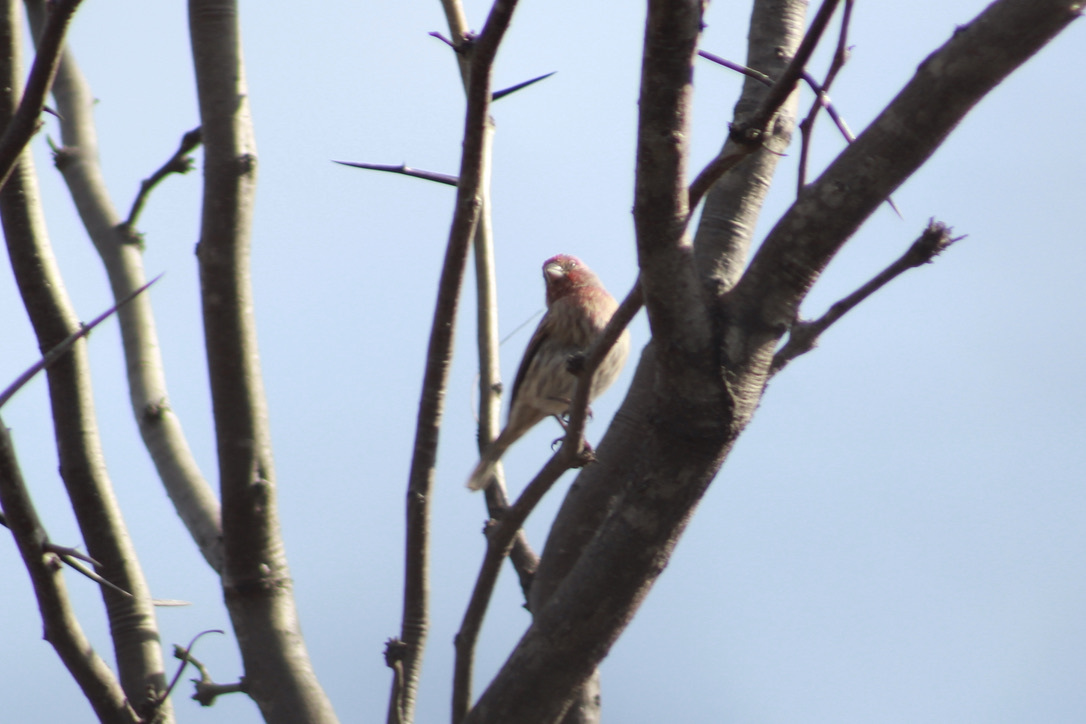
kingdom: Animalia
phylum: Chordata
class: Aves
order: Passeriformes
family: Fringillidae
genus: Haemorhous
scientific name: Haemorhous mexicanus
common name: House finch
